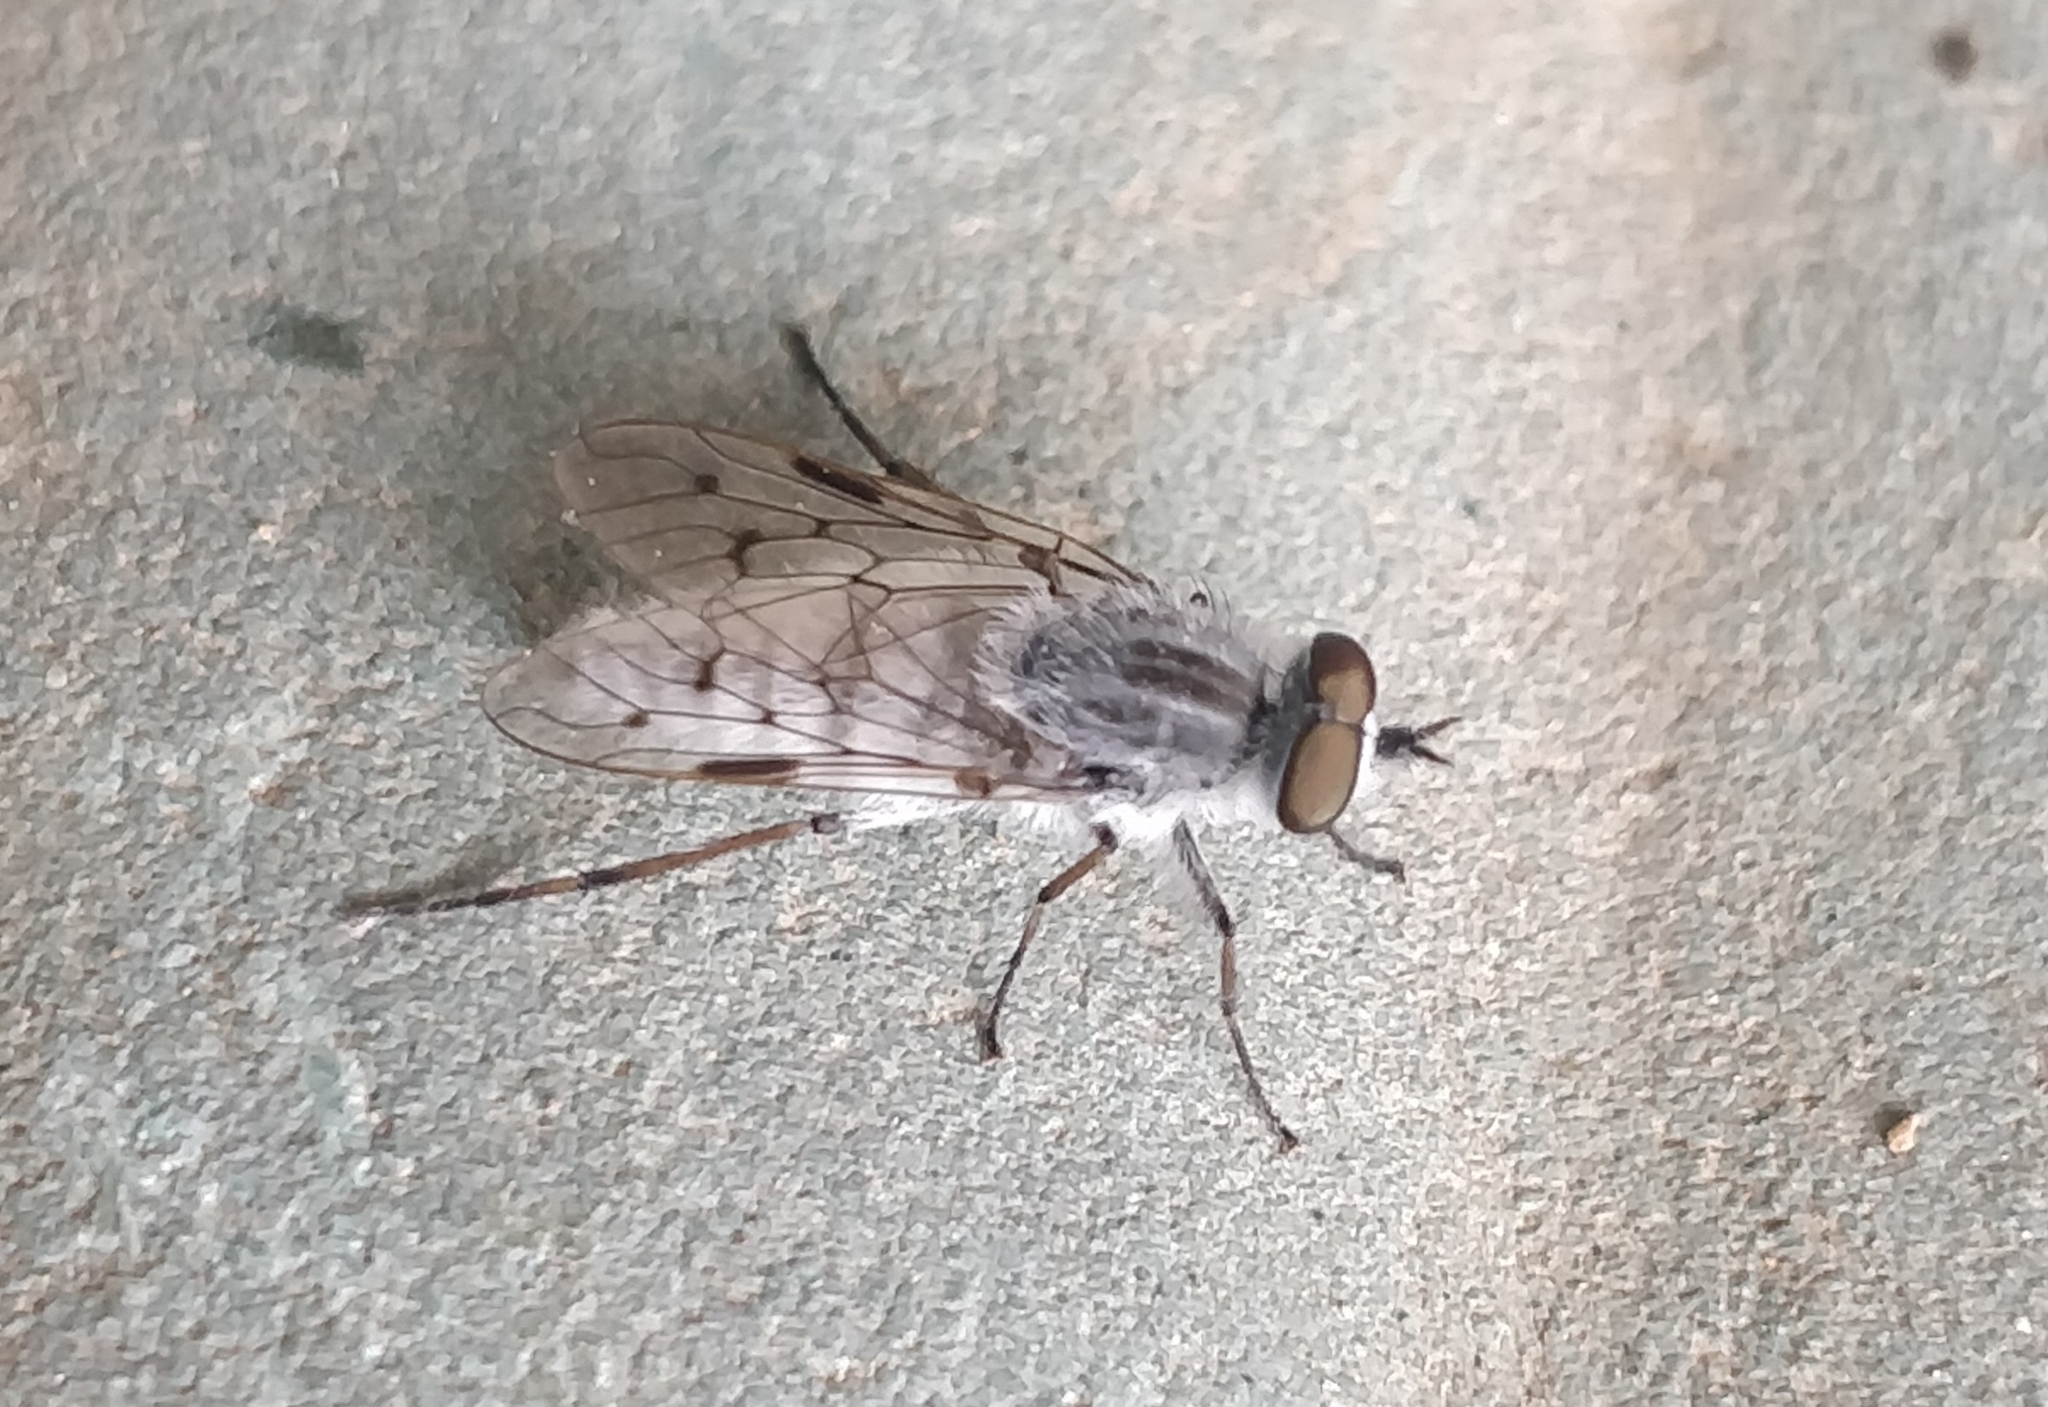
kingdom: Animalia
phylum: Arthropoda
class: Insecta
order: Diptera
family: Therevidae
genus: Irwiniella
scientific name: Irwiniella frontata
